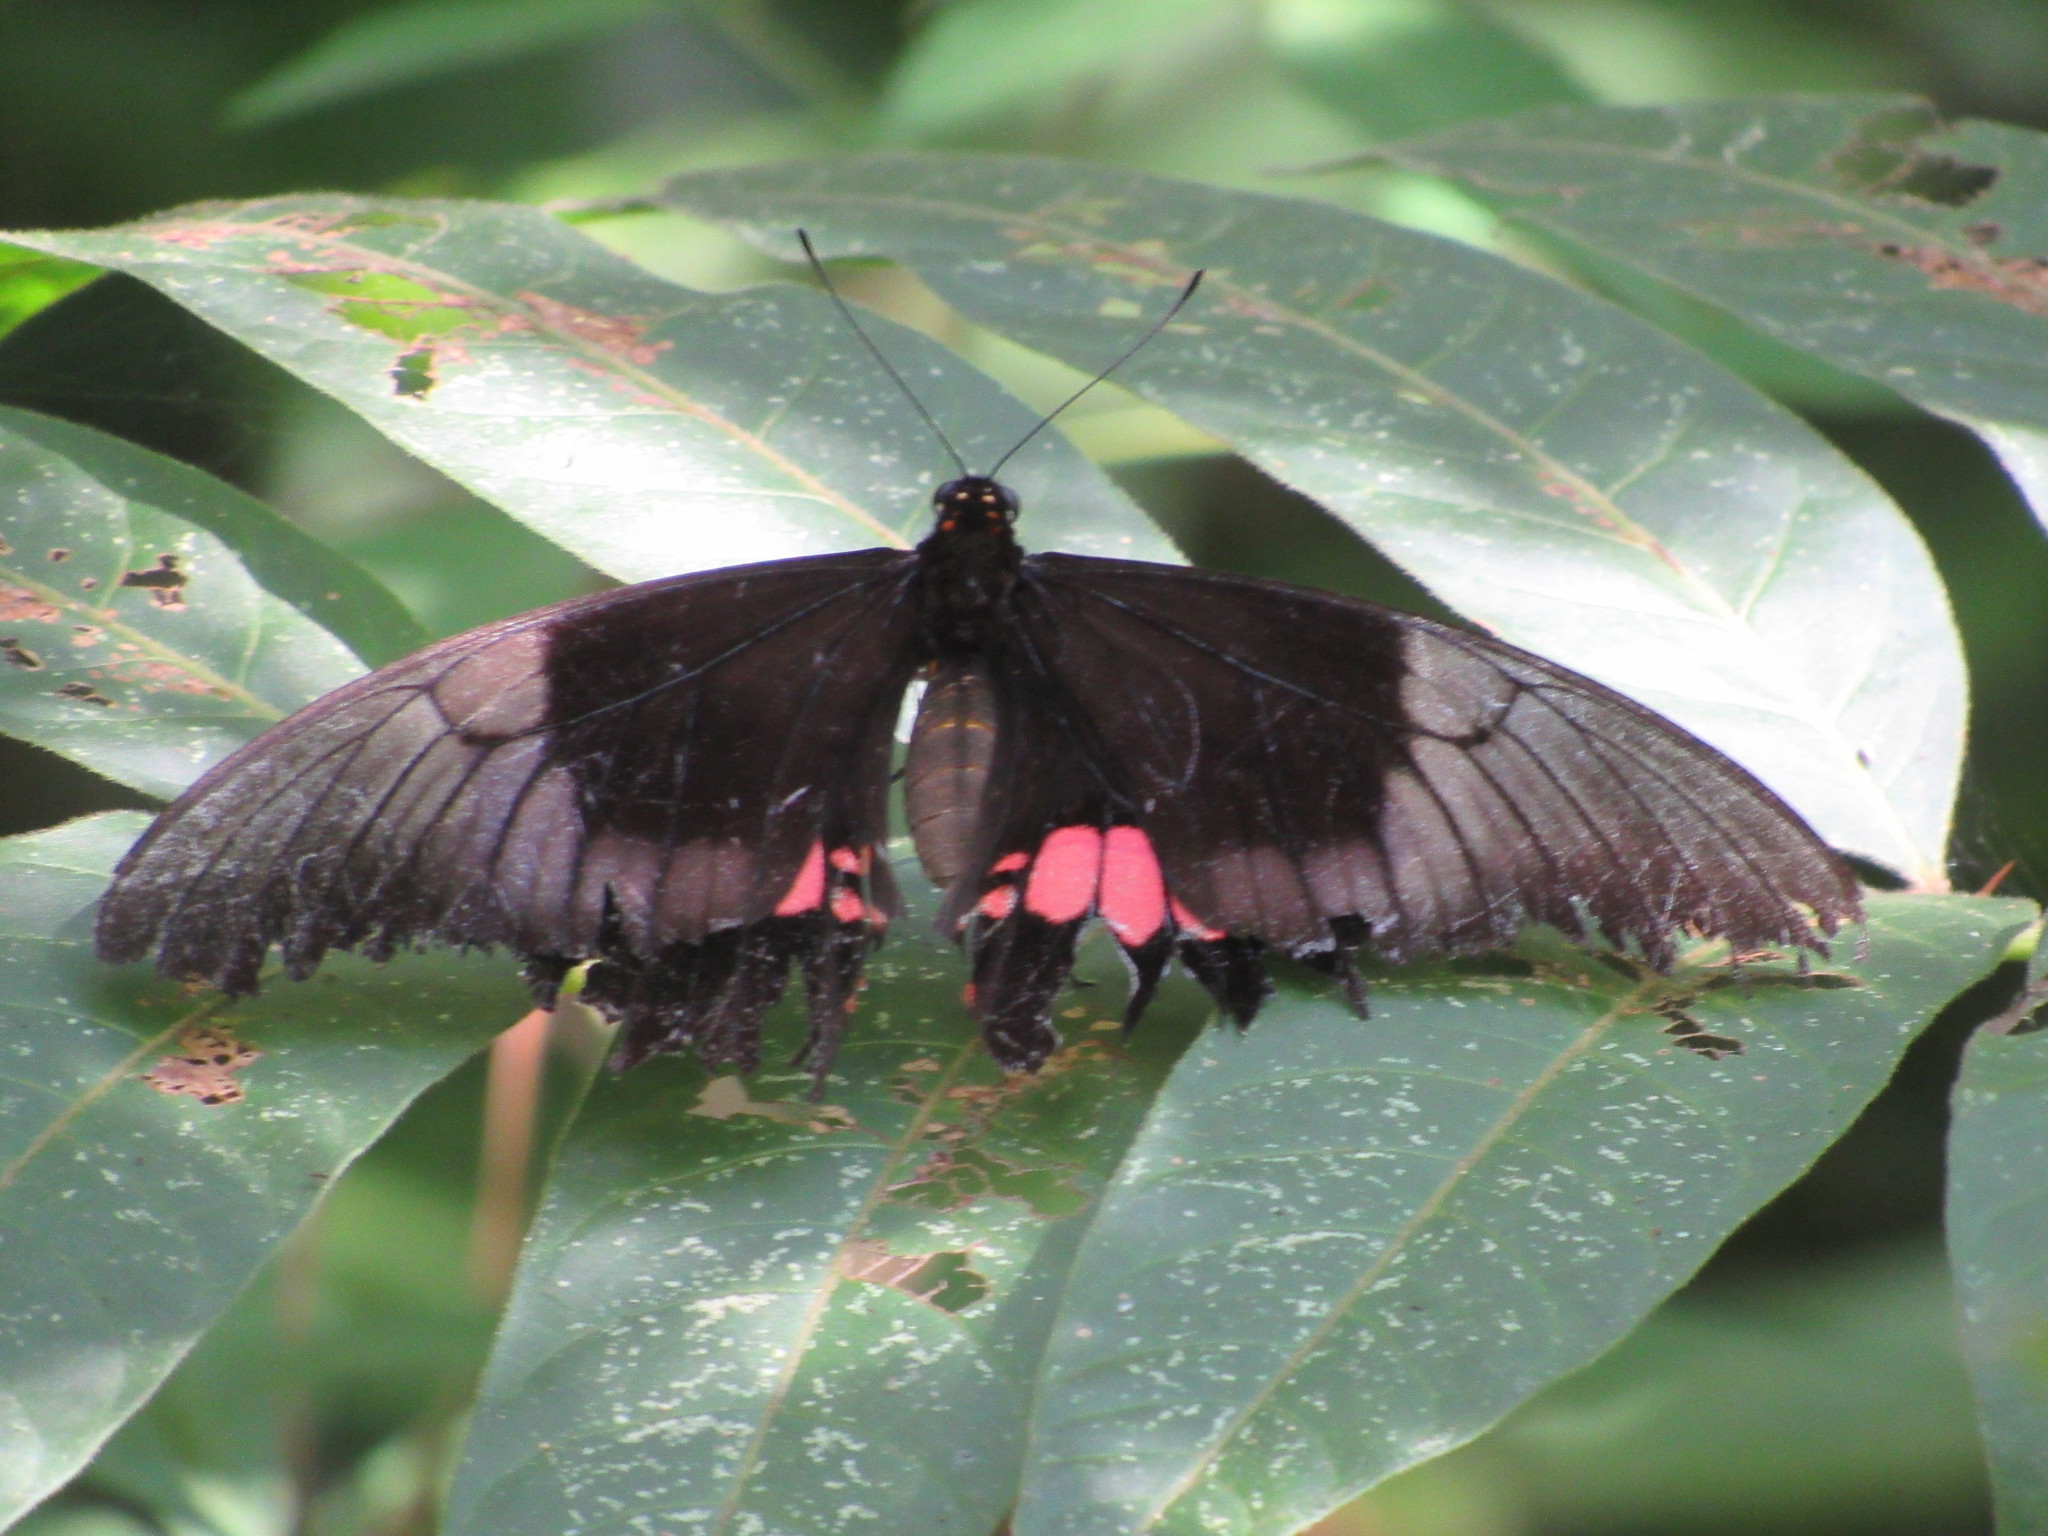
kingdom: Animalia
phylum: Arthropoda
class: Insecta
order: Lepidoptera
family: Papilionidae
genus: Papilio
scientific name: Papilio anchisiades
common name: Idaes swallowtail
